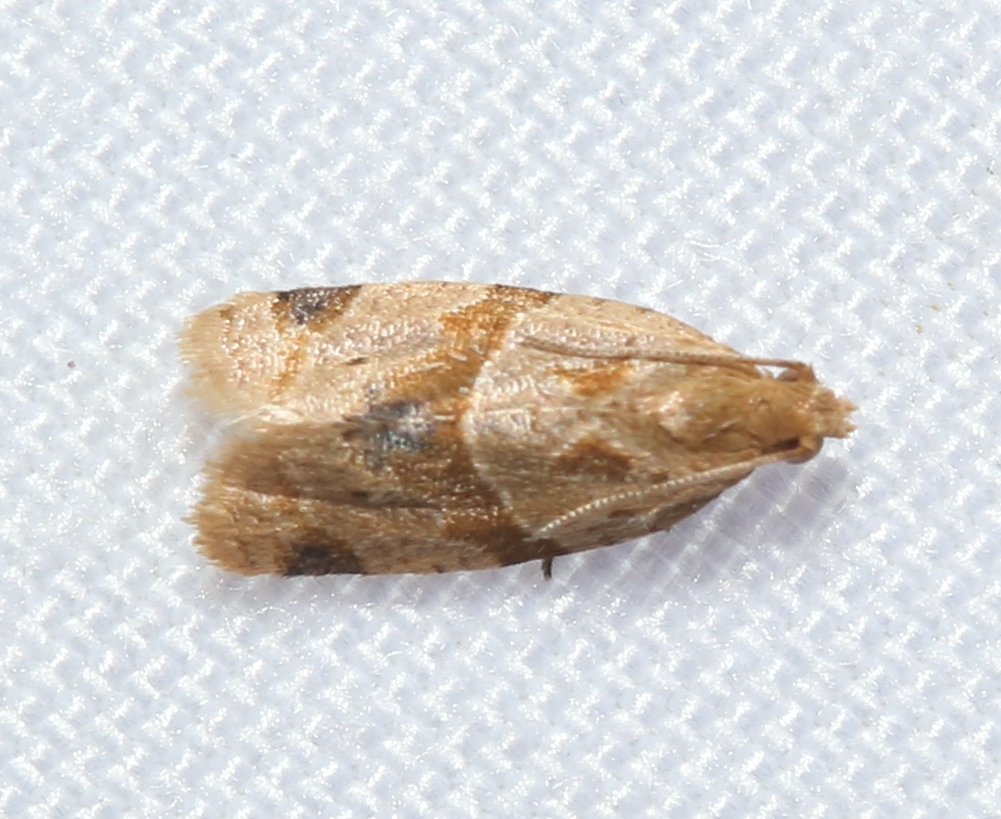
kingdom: Animalia
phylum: Arthropoda
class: Insecta
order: Lepidoptera
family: Tortricidae
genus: Clepsis
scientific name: Clepsis peritana
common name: Garden tortrix
